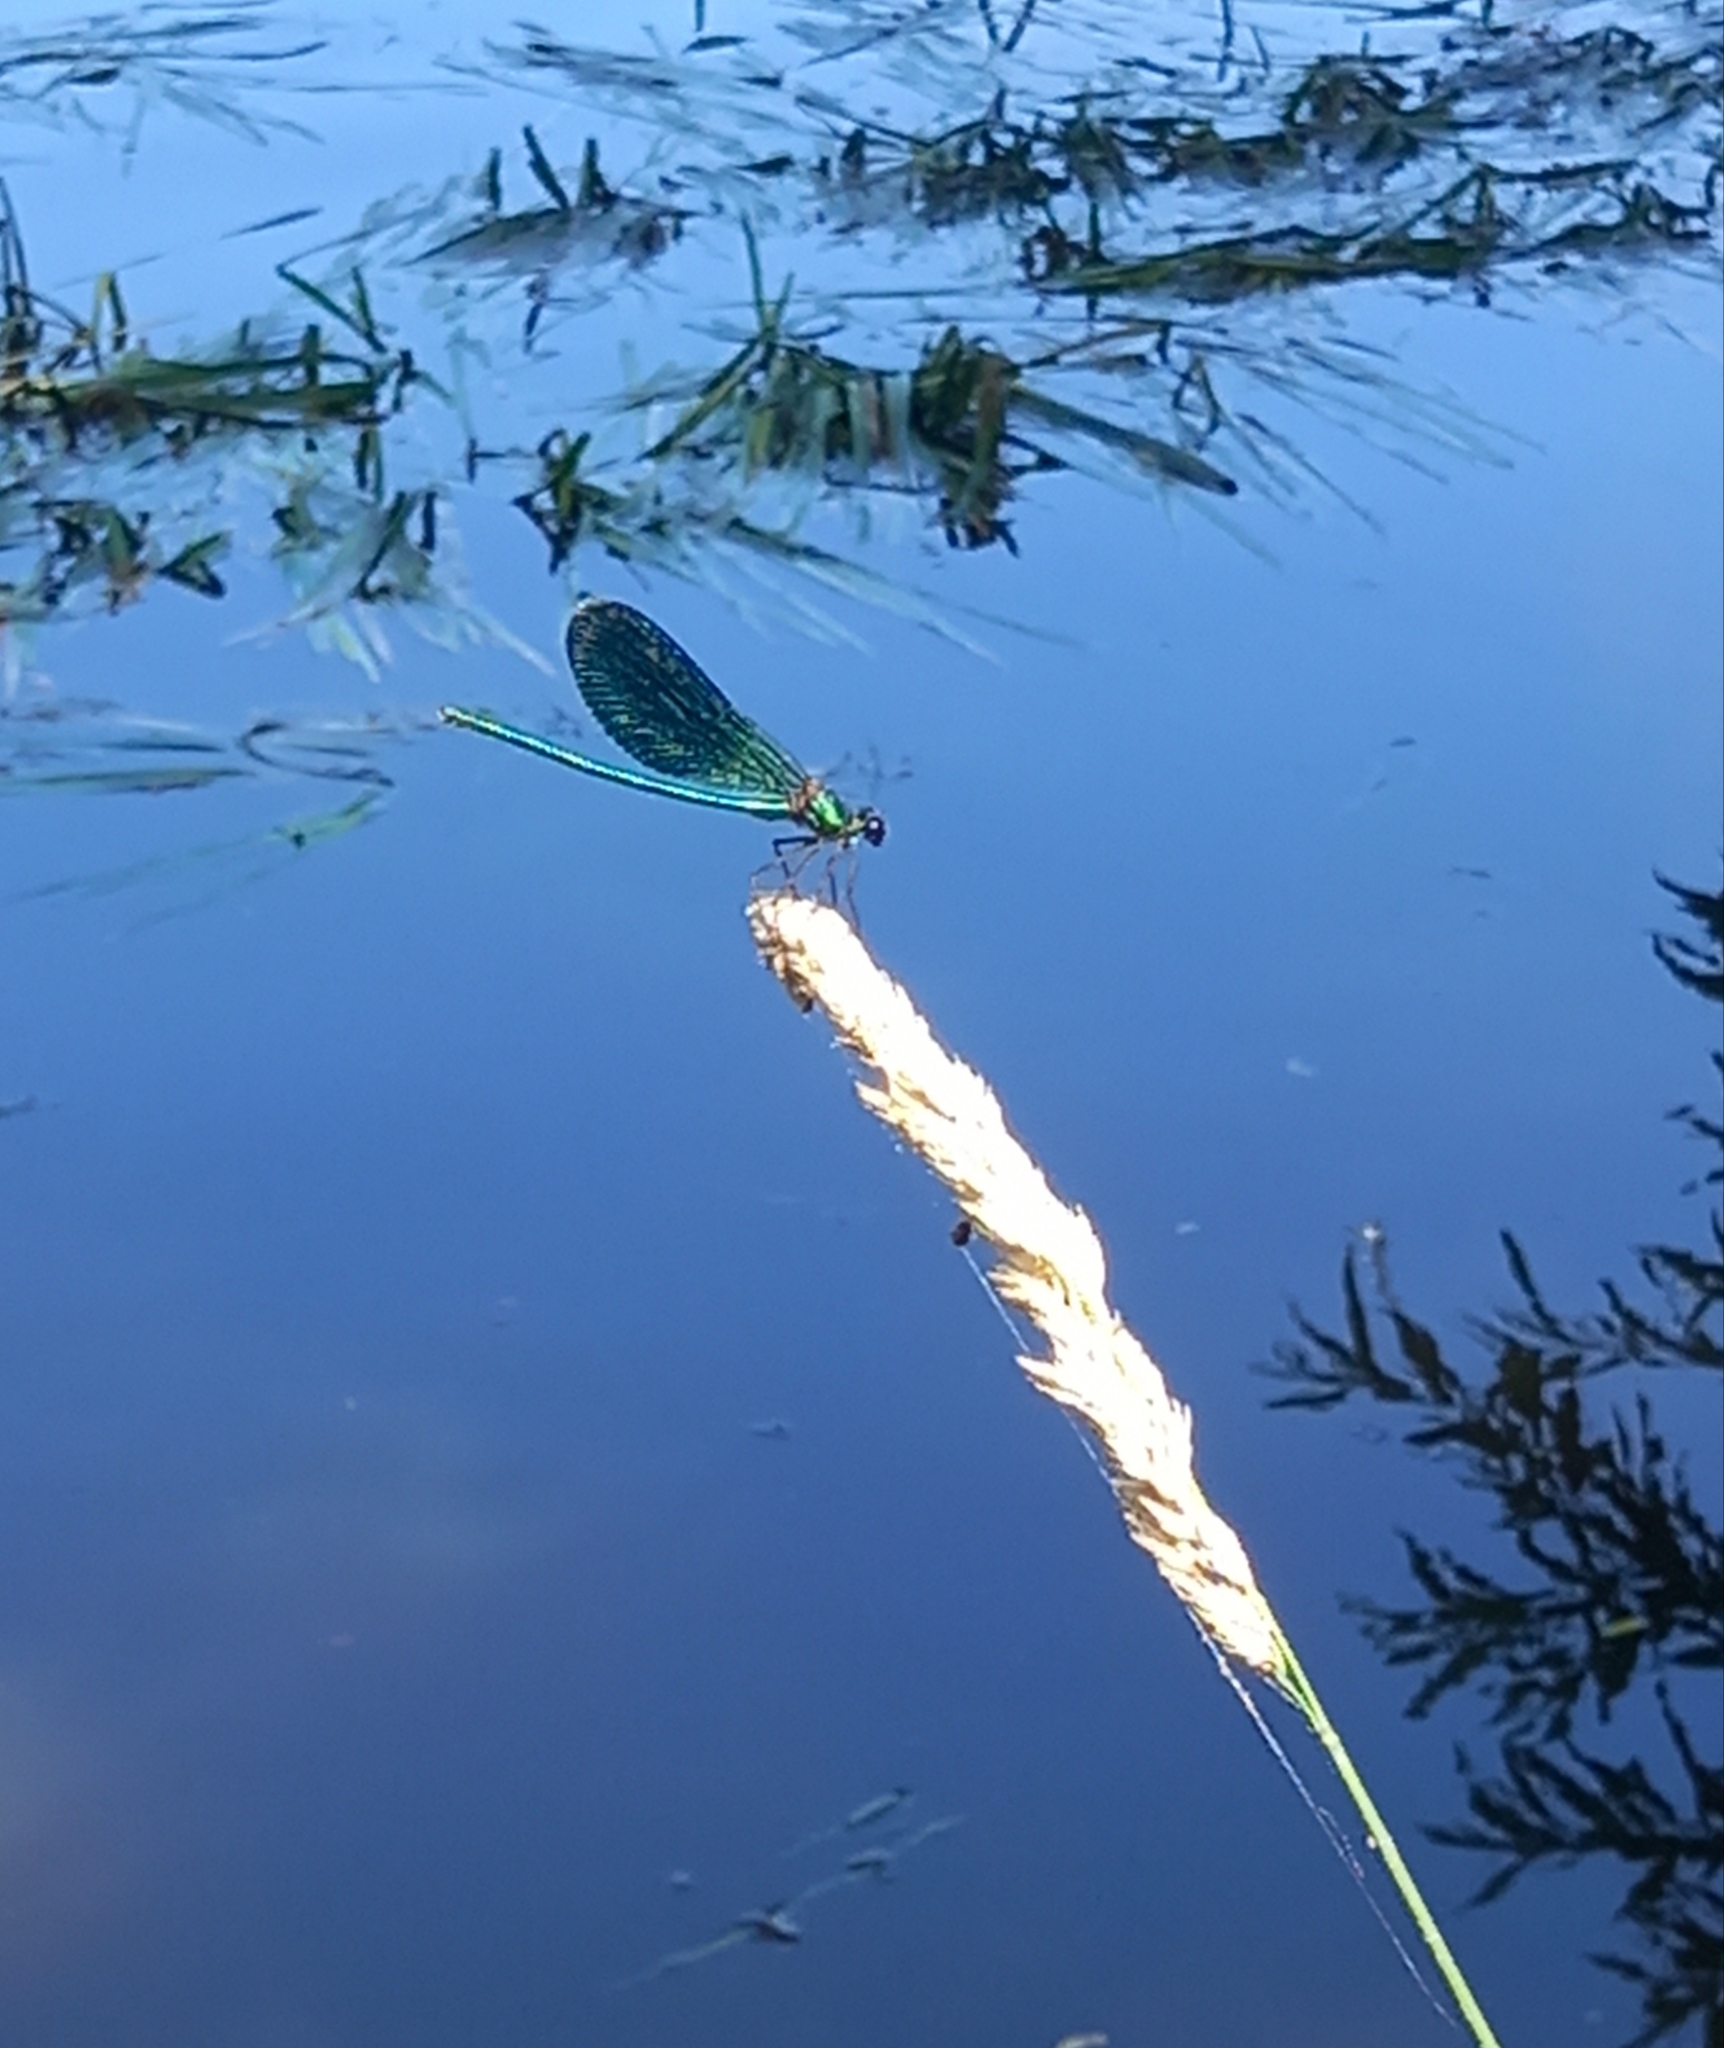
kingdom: Animalia
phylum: Arthropoda
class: Insecta
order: Odonata
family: Calopterygidae
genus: Calopteryx
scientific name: Calopteryx splendens
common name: Banded demoiselle
